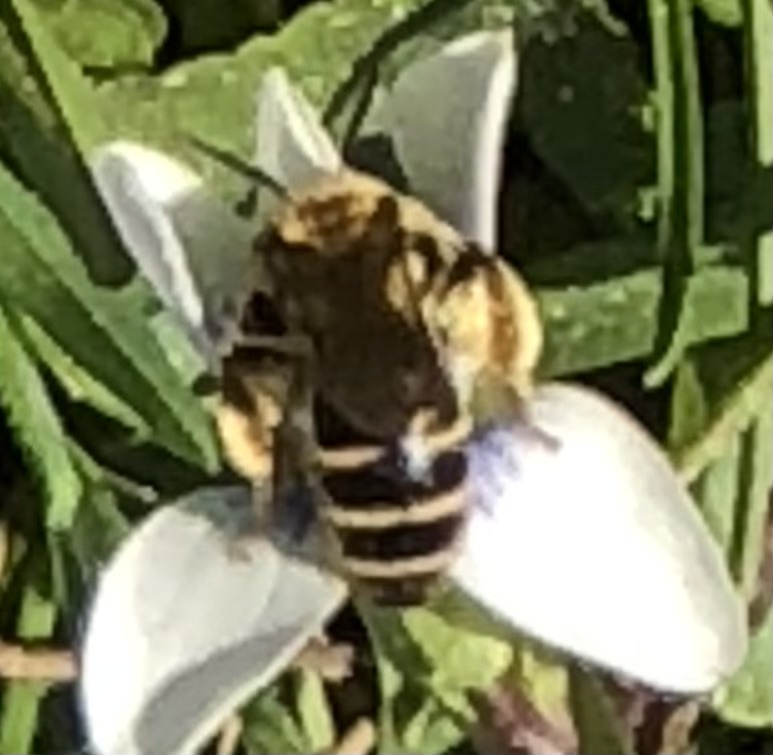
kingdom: Animalia
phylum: Arthropoda
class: Insecta
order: Hymenoptera
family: Andrenidae
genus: Andrena
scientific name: Andrena violae
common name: Violet miner
